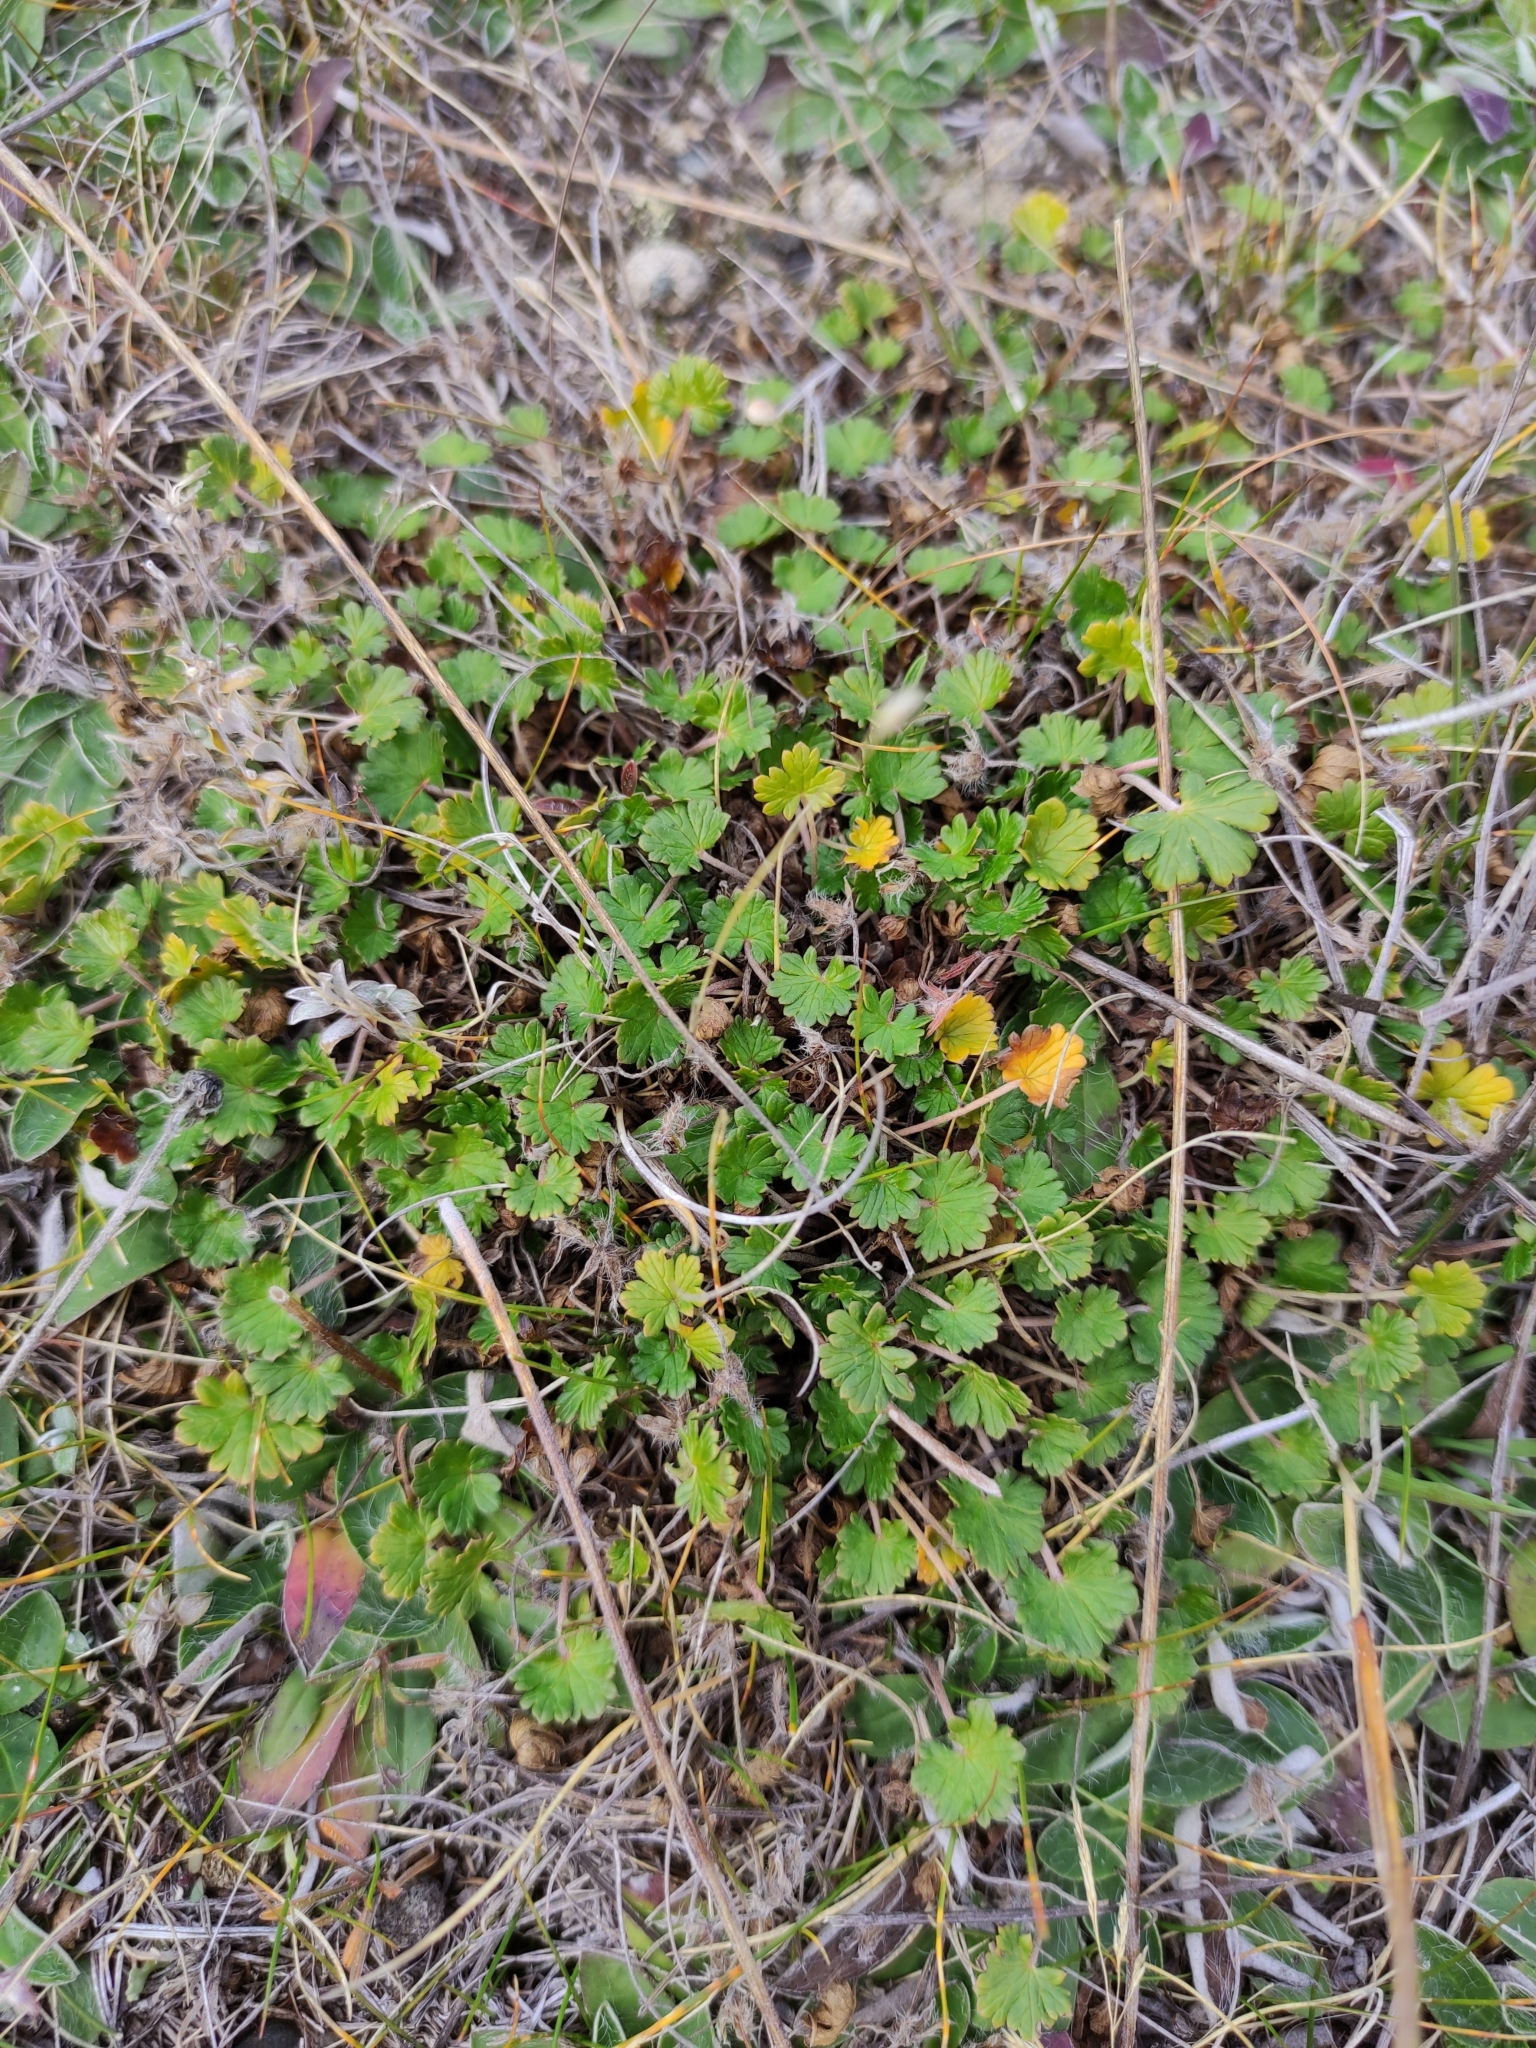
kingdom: Plantae
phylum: Tracheophyta
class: Magnoliopsida
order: Geraniales
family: Geraniaceae
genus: Geranium
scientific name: Geranium brevicaule
